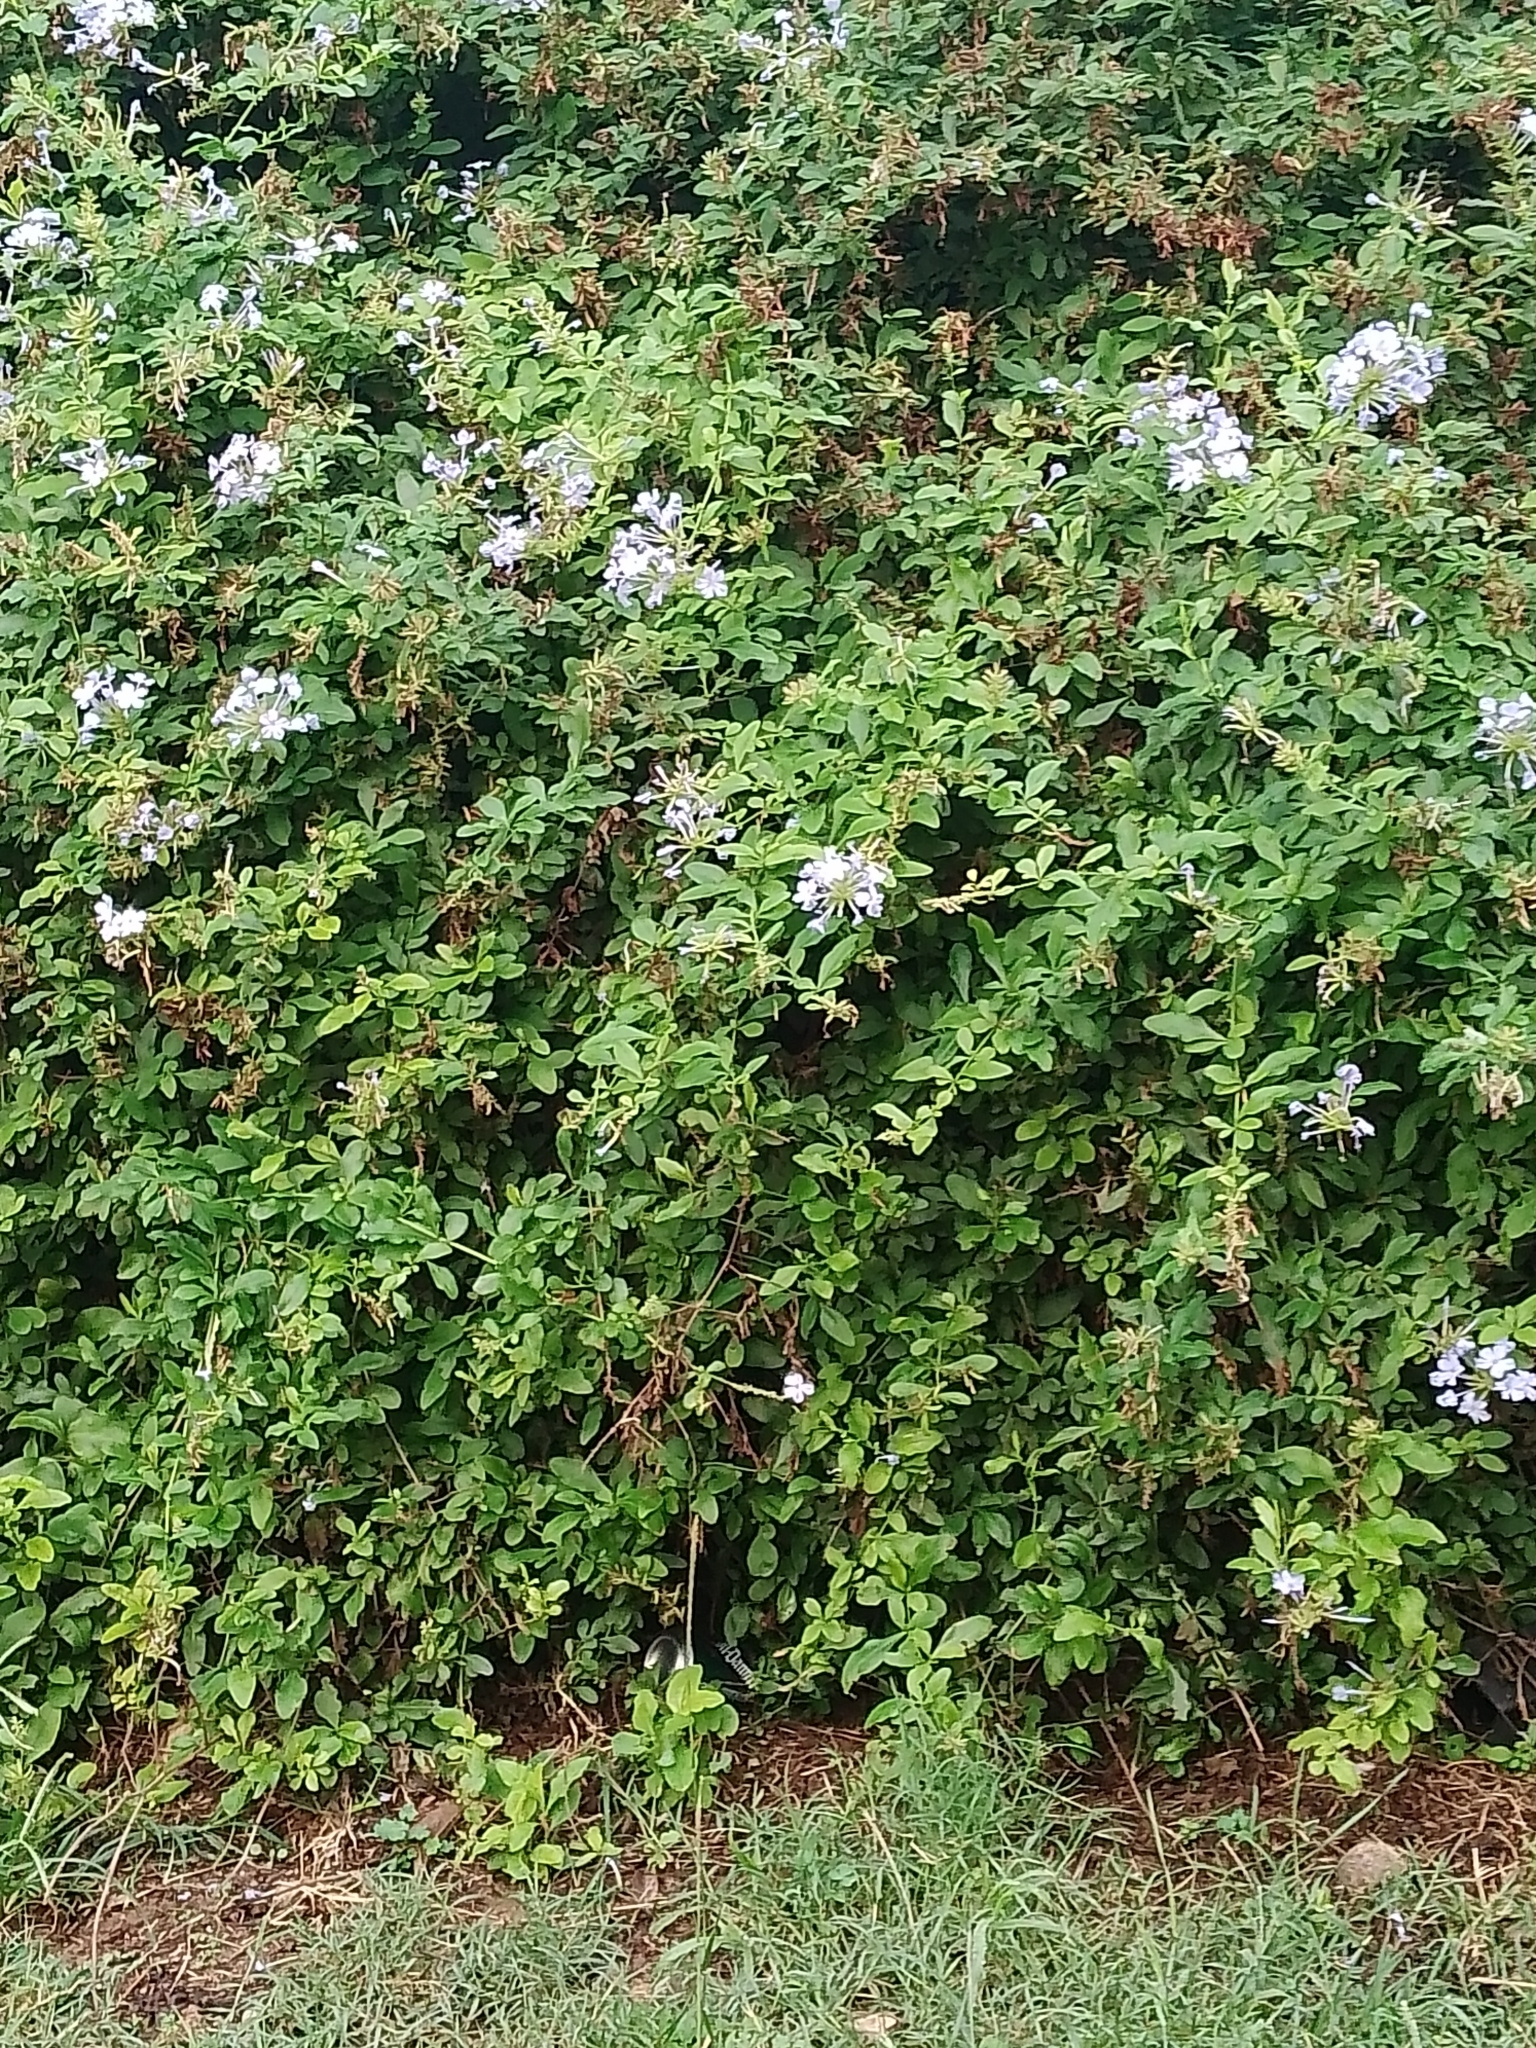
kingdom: Plantae
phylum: Tracheophyta
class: Magnoliopsida
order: Caryophyllales
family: Plumbaginaceae
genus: Plumbago
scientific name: Plumbago auriculata
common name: Cape leadwort
